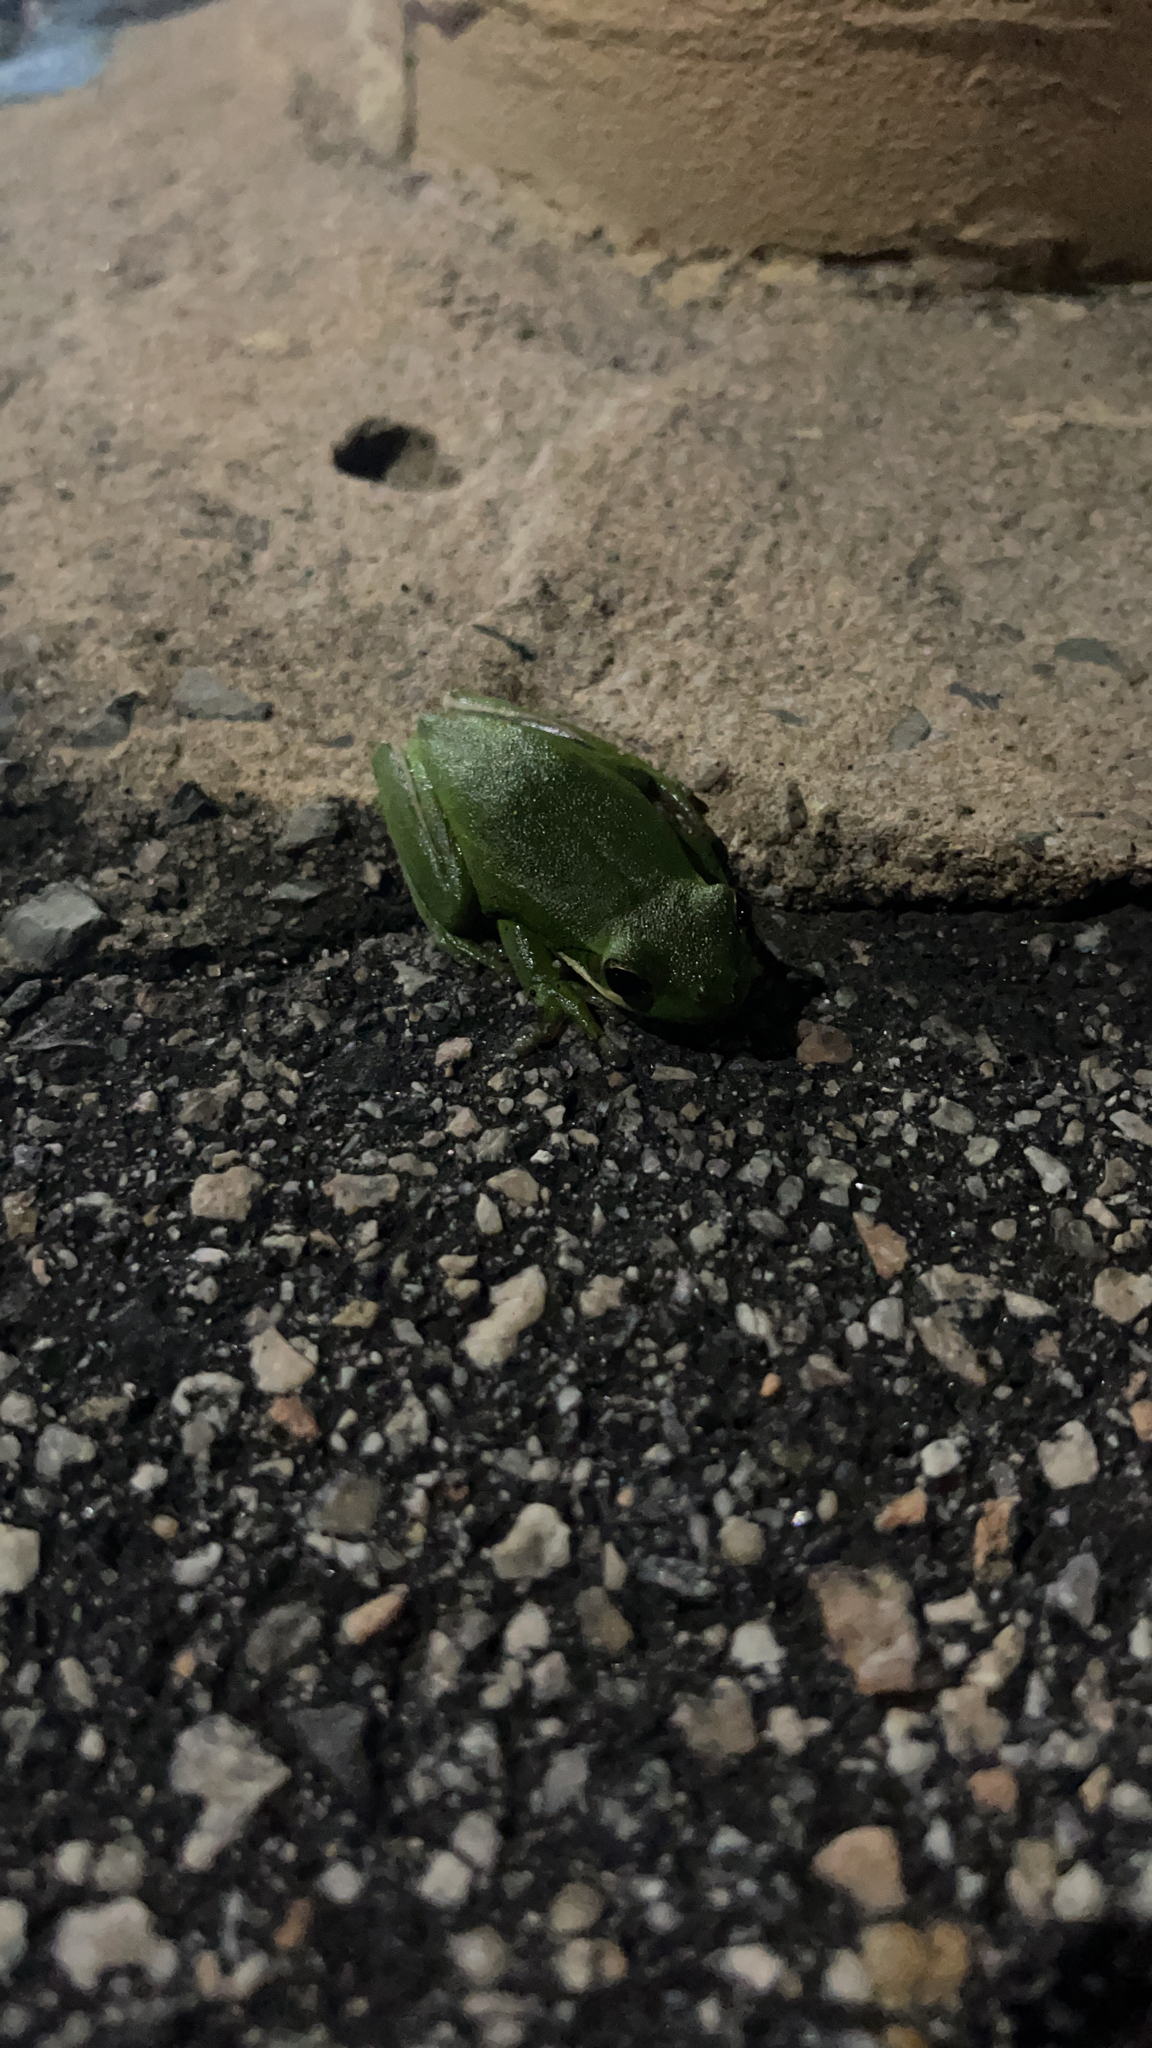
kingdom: Animalia
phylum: Chordata
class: Amphibia
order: Anura
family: Hylidae
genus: Dryophytes
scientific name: Dryophytes cinereus
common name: Green treefrog
